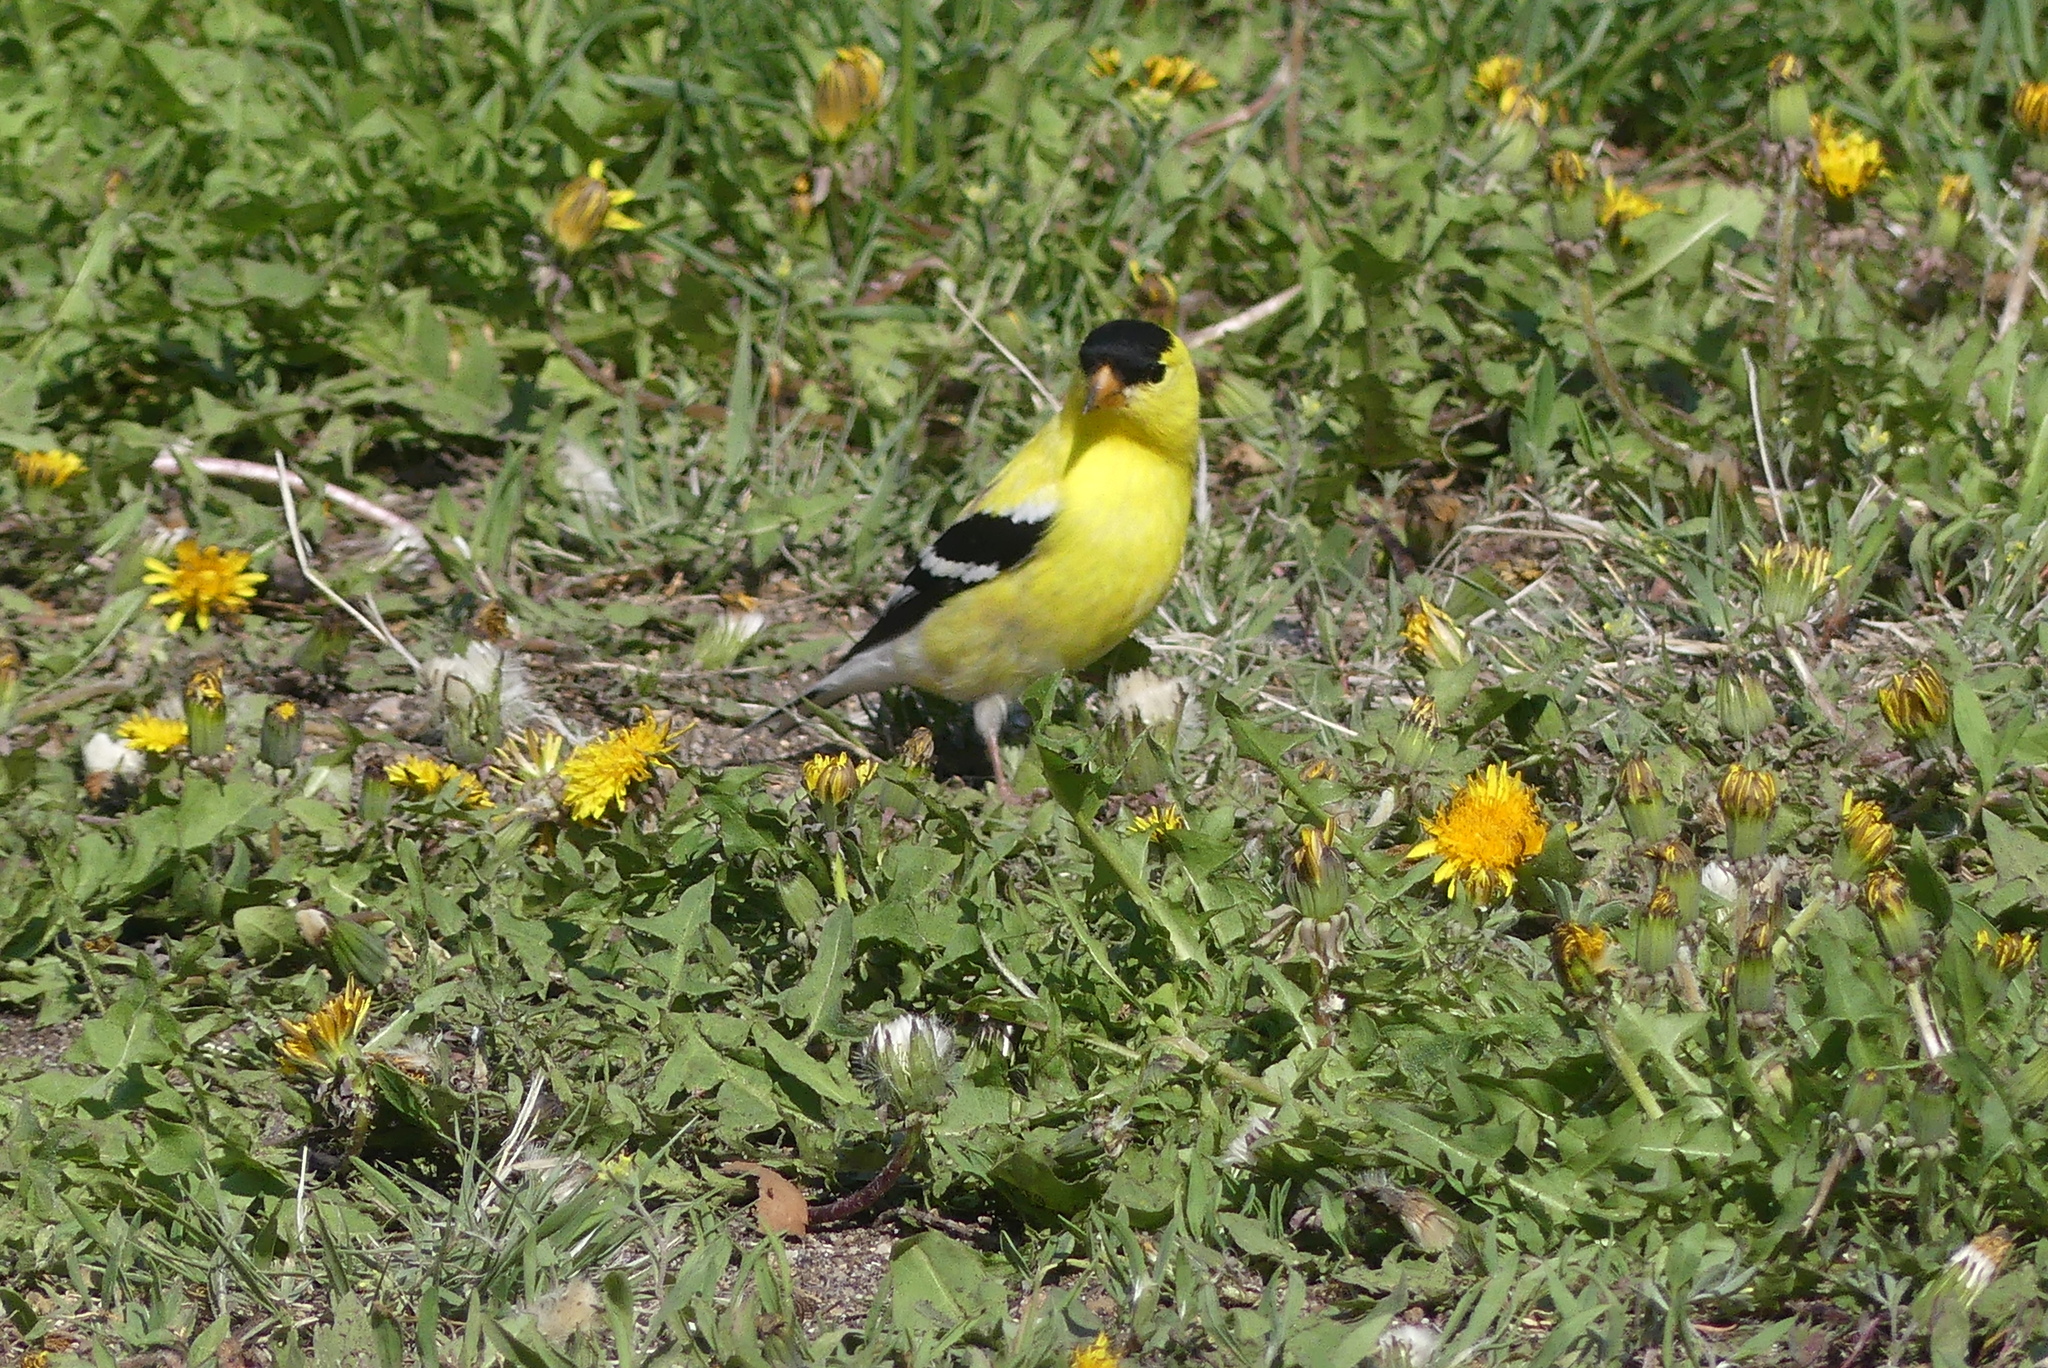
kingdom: Animalia
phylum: Chordata
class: Aves
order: Passeriformes
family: Fringillidae
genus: Spinus
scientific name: Spinus tristis
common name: American goldfinch
